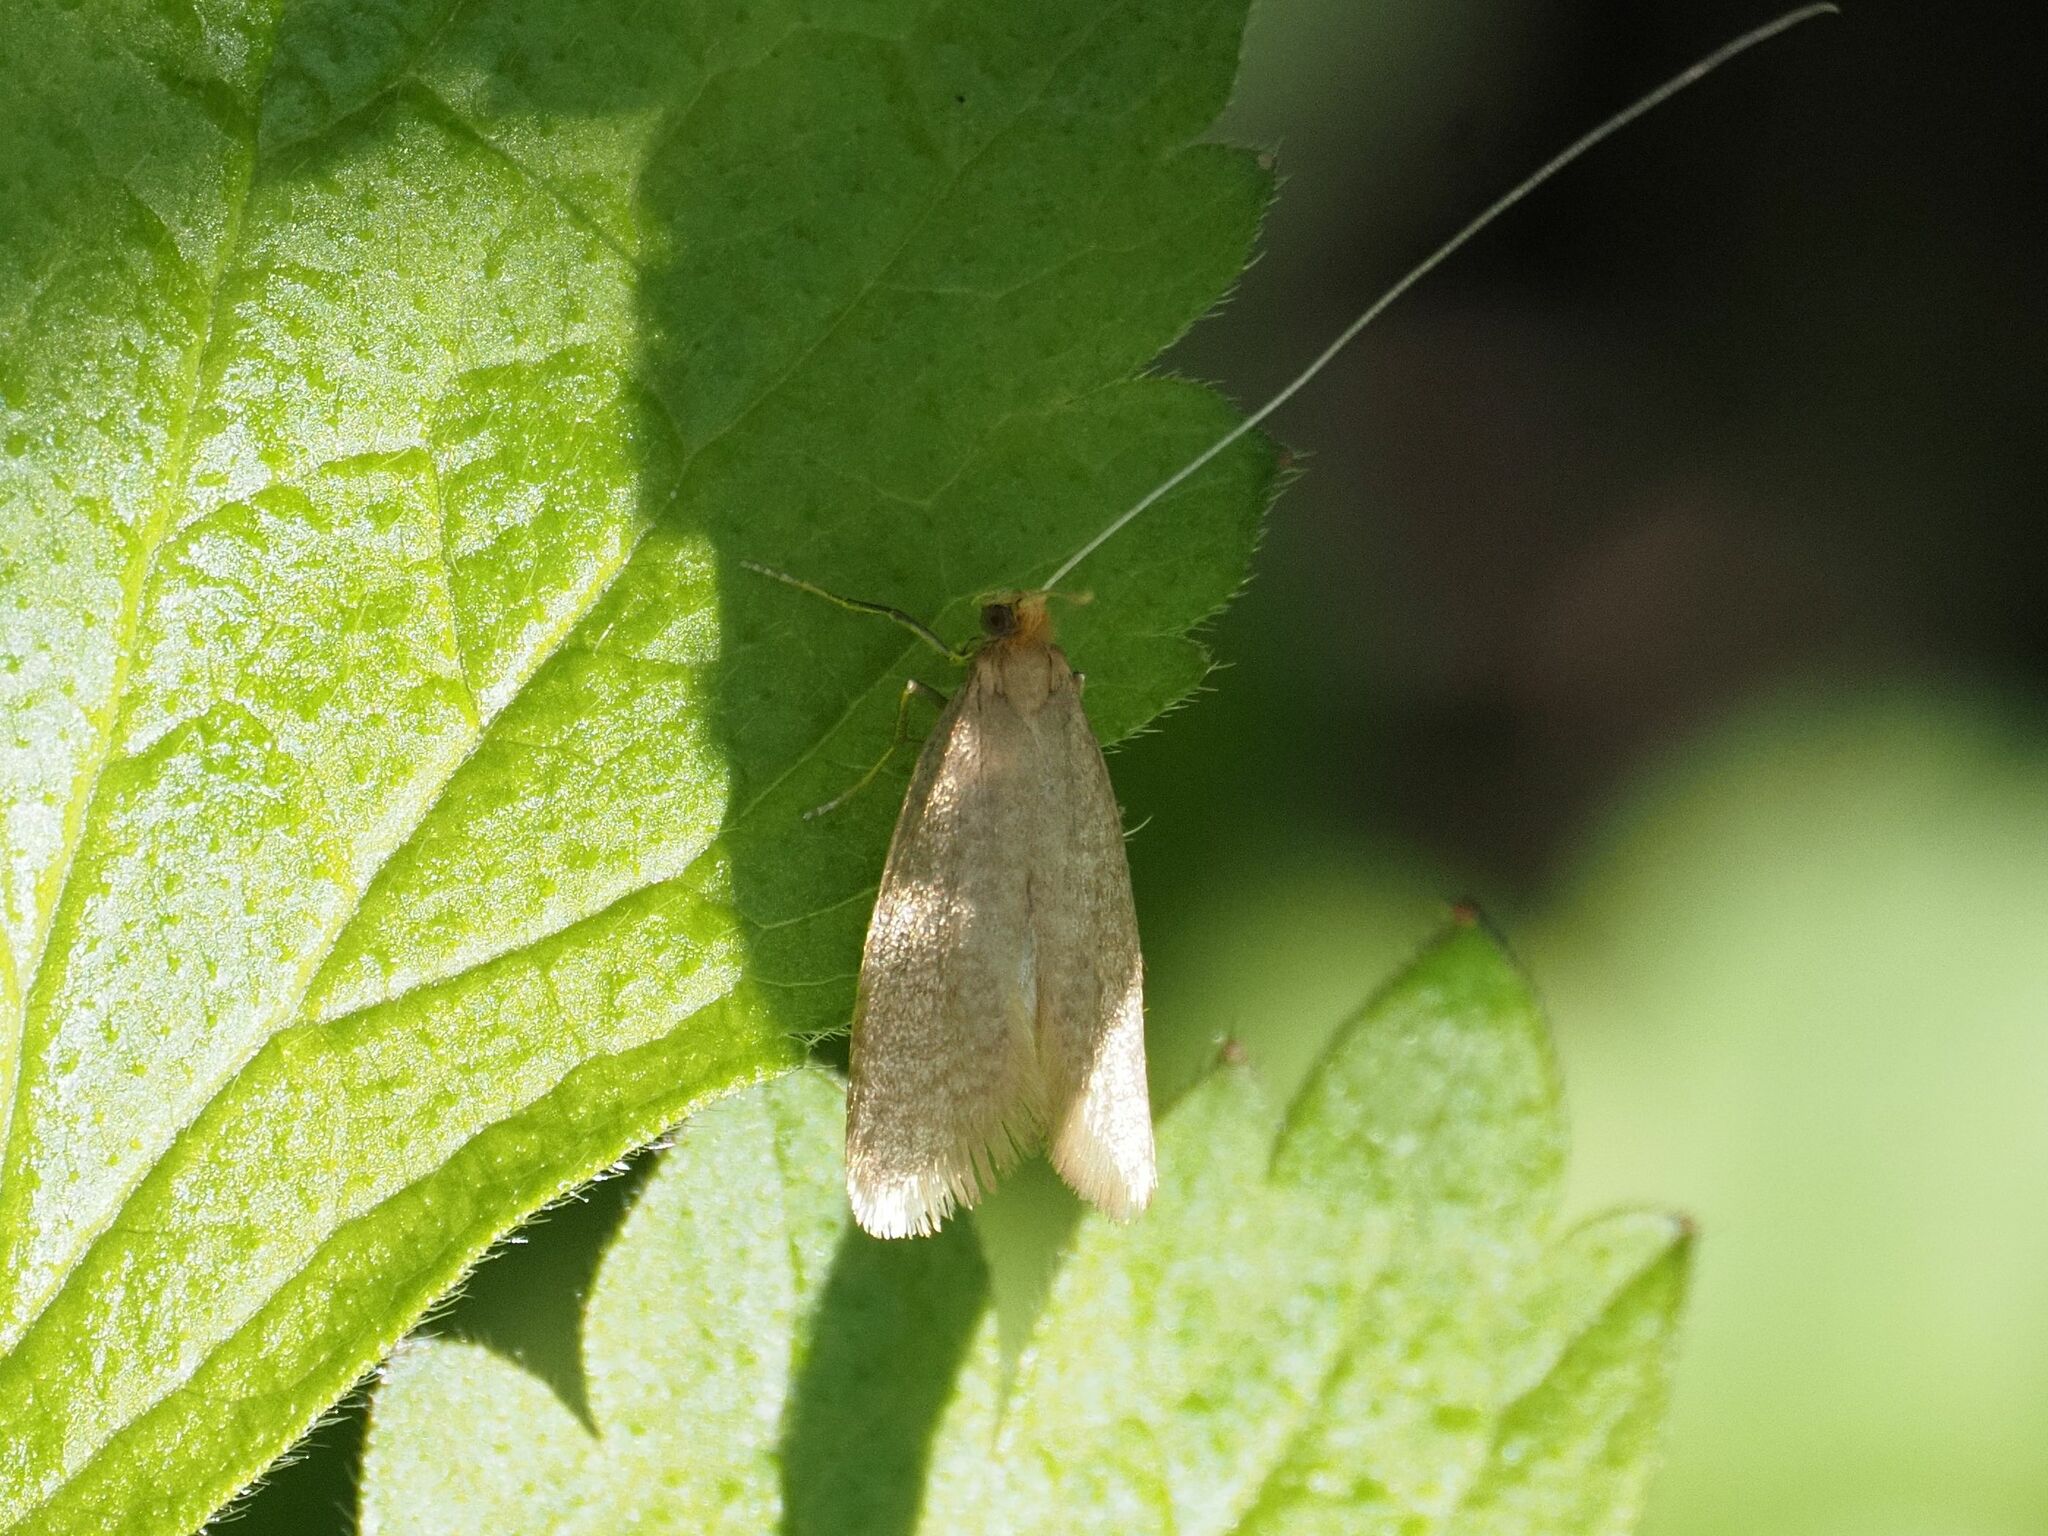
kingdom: Animalia
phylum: Arthropoda
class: Insecta
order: Lepidoptera
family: Adelidae
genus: Nematopogon
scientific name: Nematopogon swammerdamella
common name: Large long-horn
